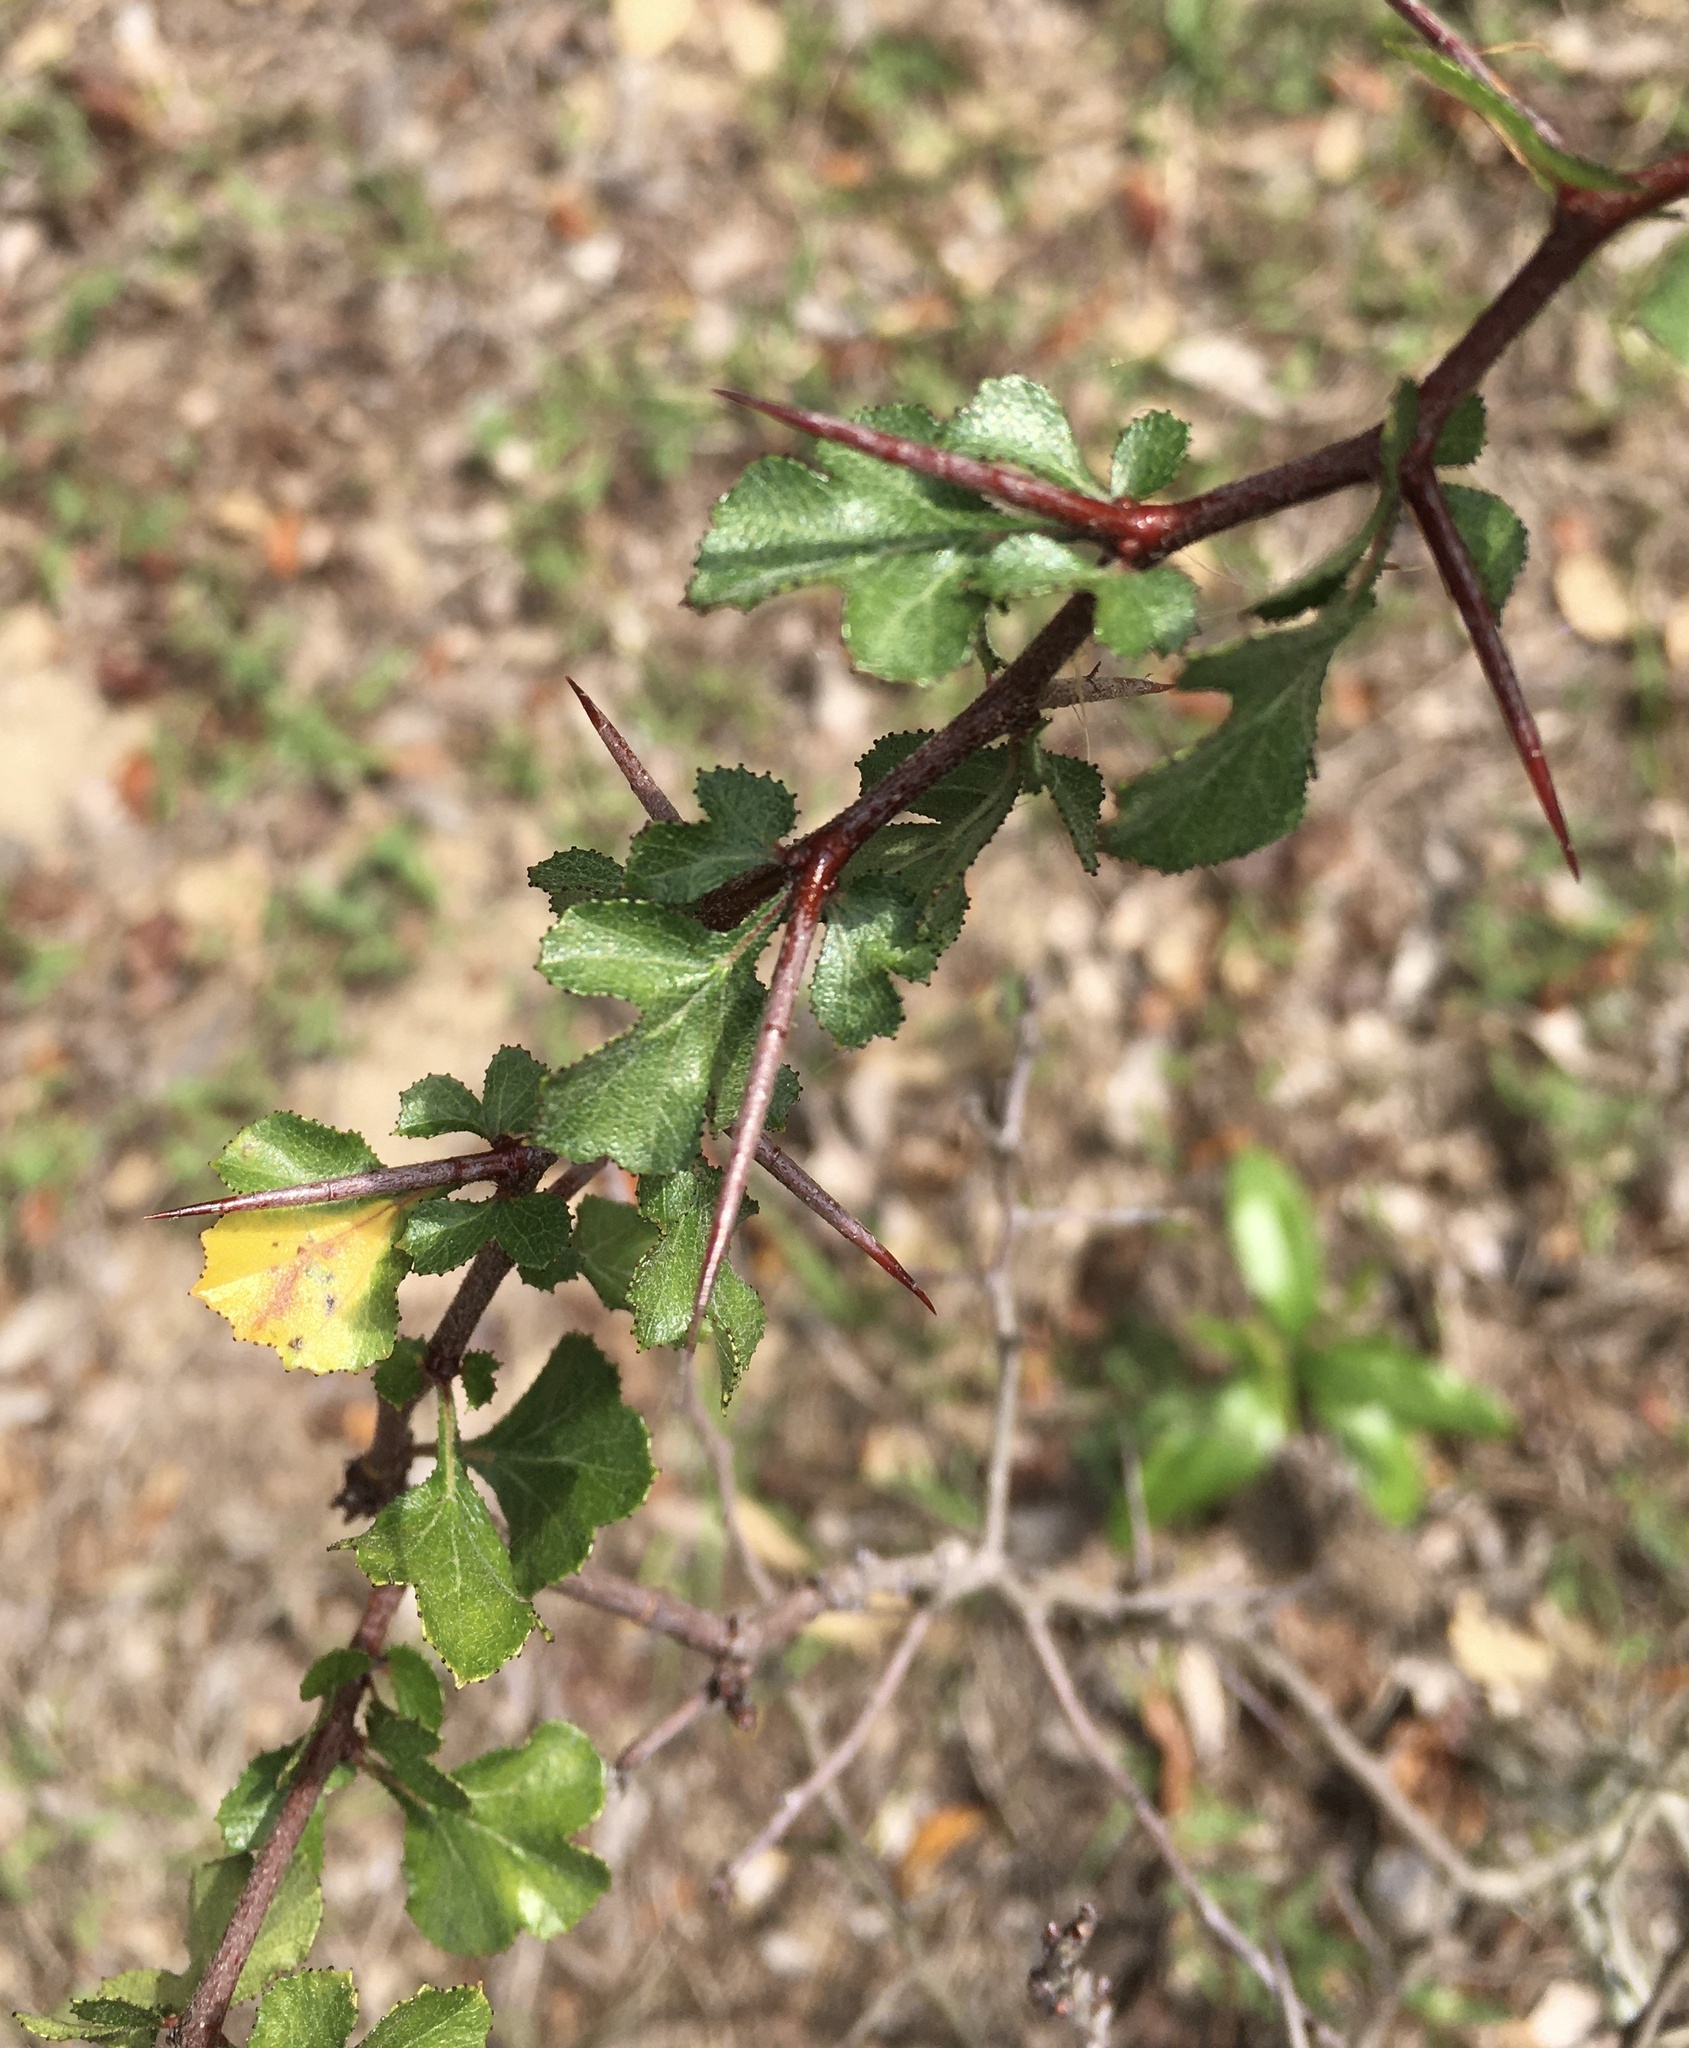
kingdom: Plantae
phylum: Tracheophyta
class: Magnoliopsida
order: Rosales
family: Rosaceae
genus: Crataegus
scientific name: Crataegus flava
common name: Yellow hawthorn
